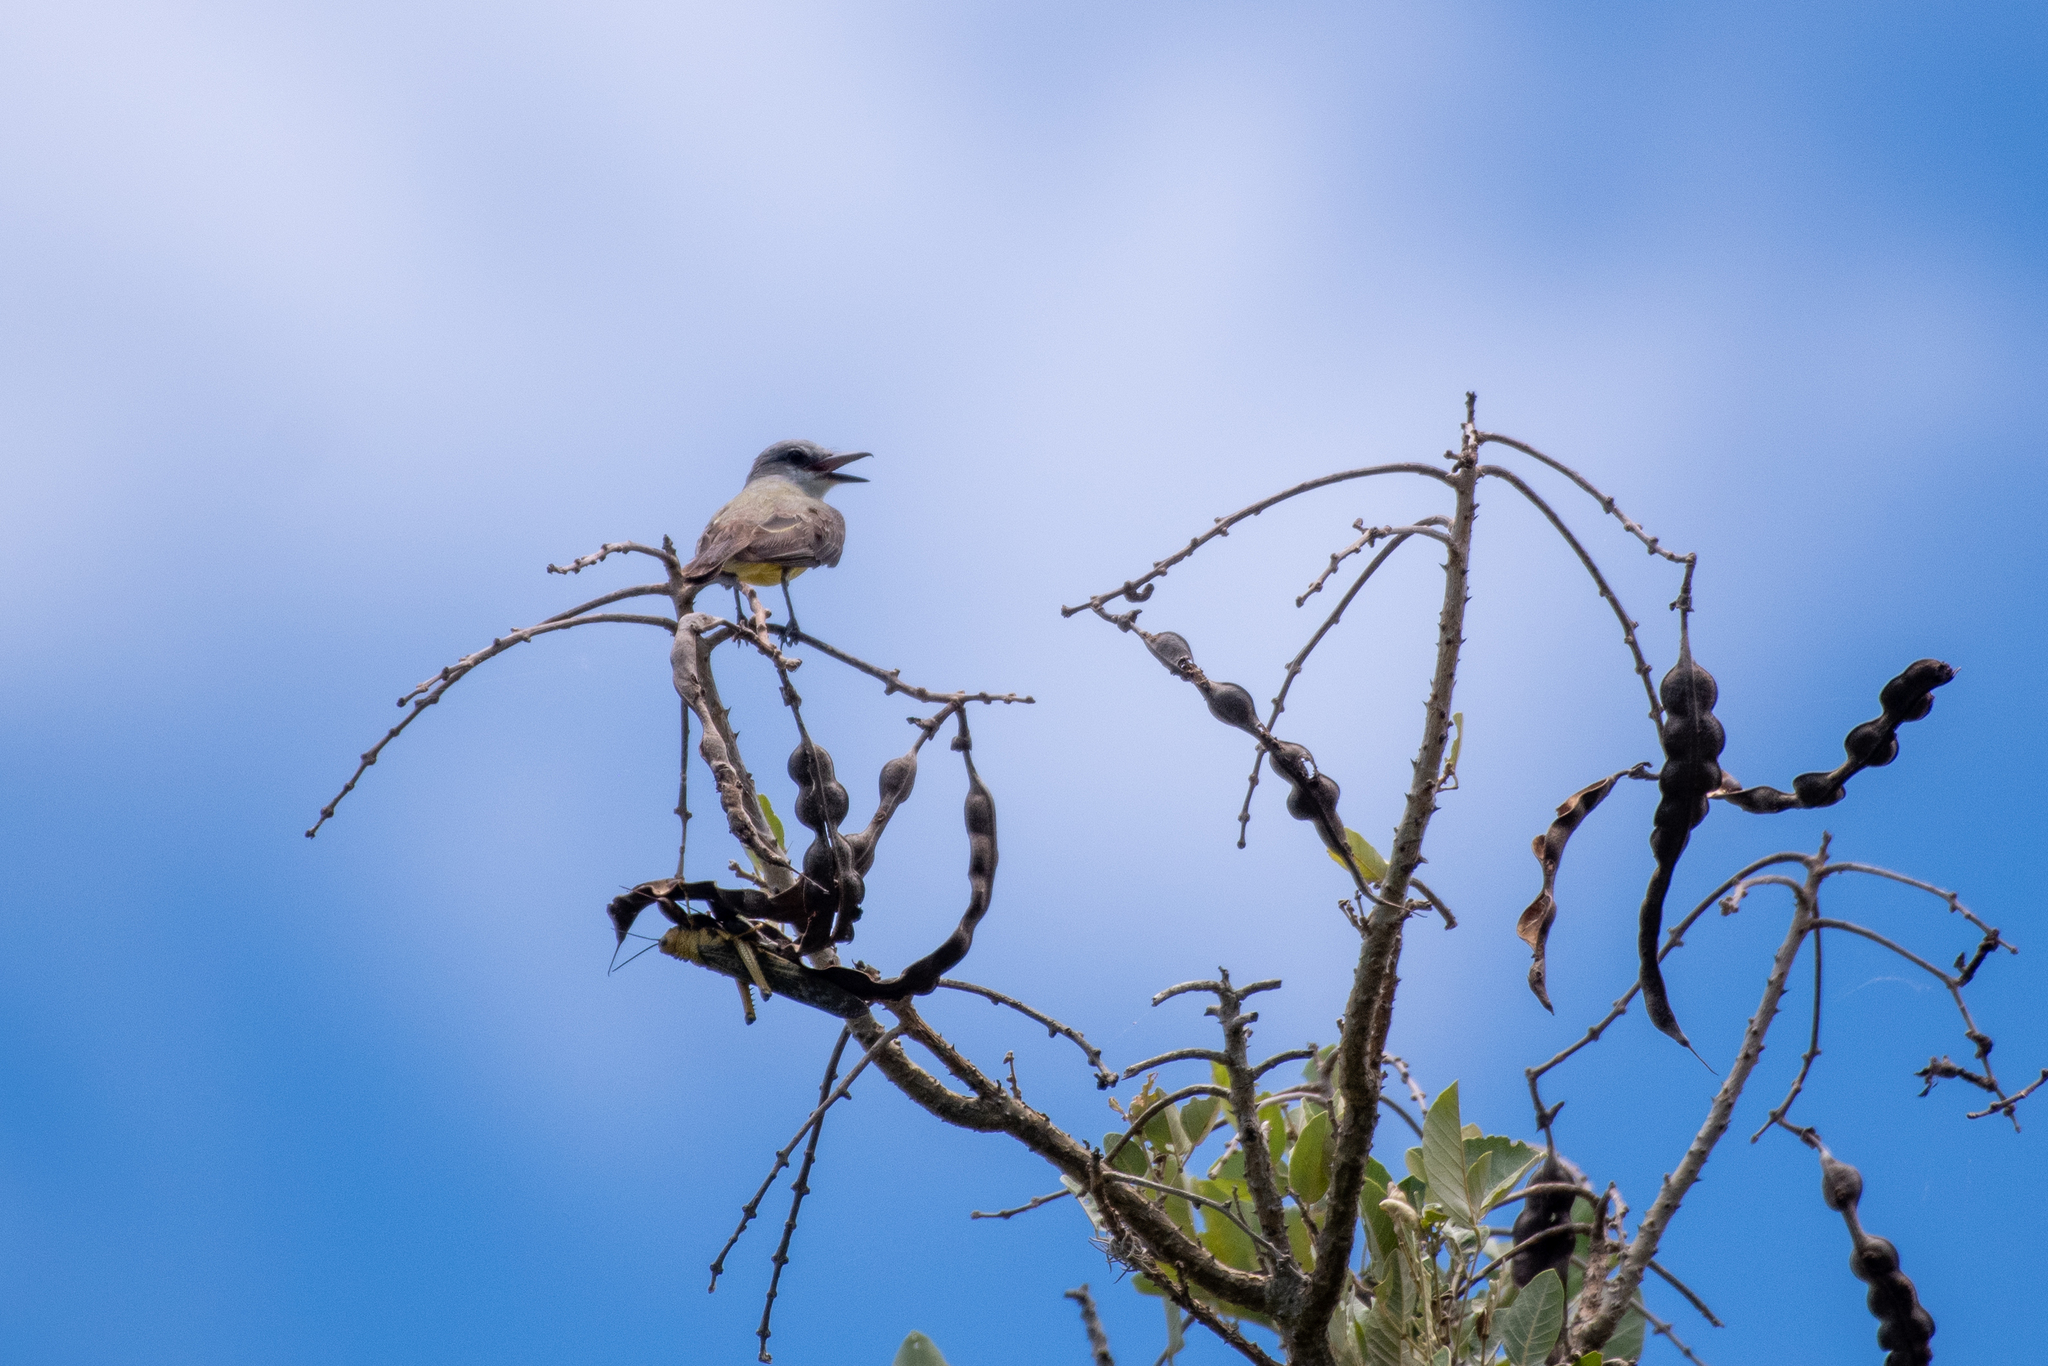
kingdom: Animalia
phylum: Chordata
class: Aves
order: Passeriformes
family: Tyrannidae
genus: Tyrannus
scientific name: Tyrannus melancholicus
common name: Tropical kingbird
